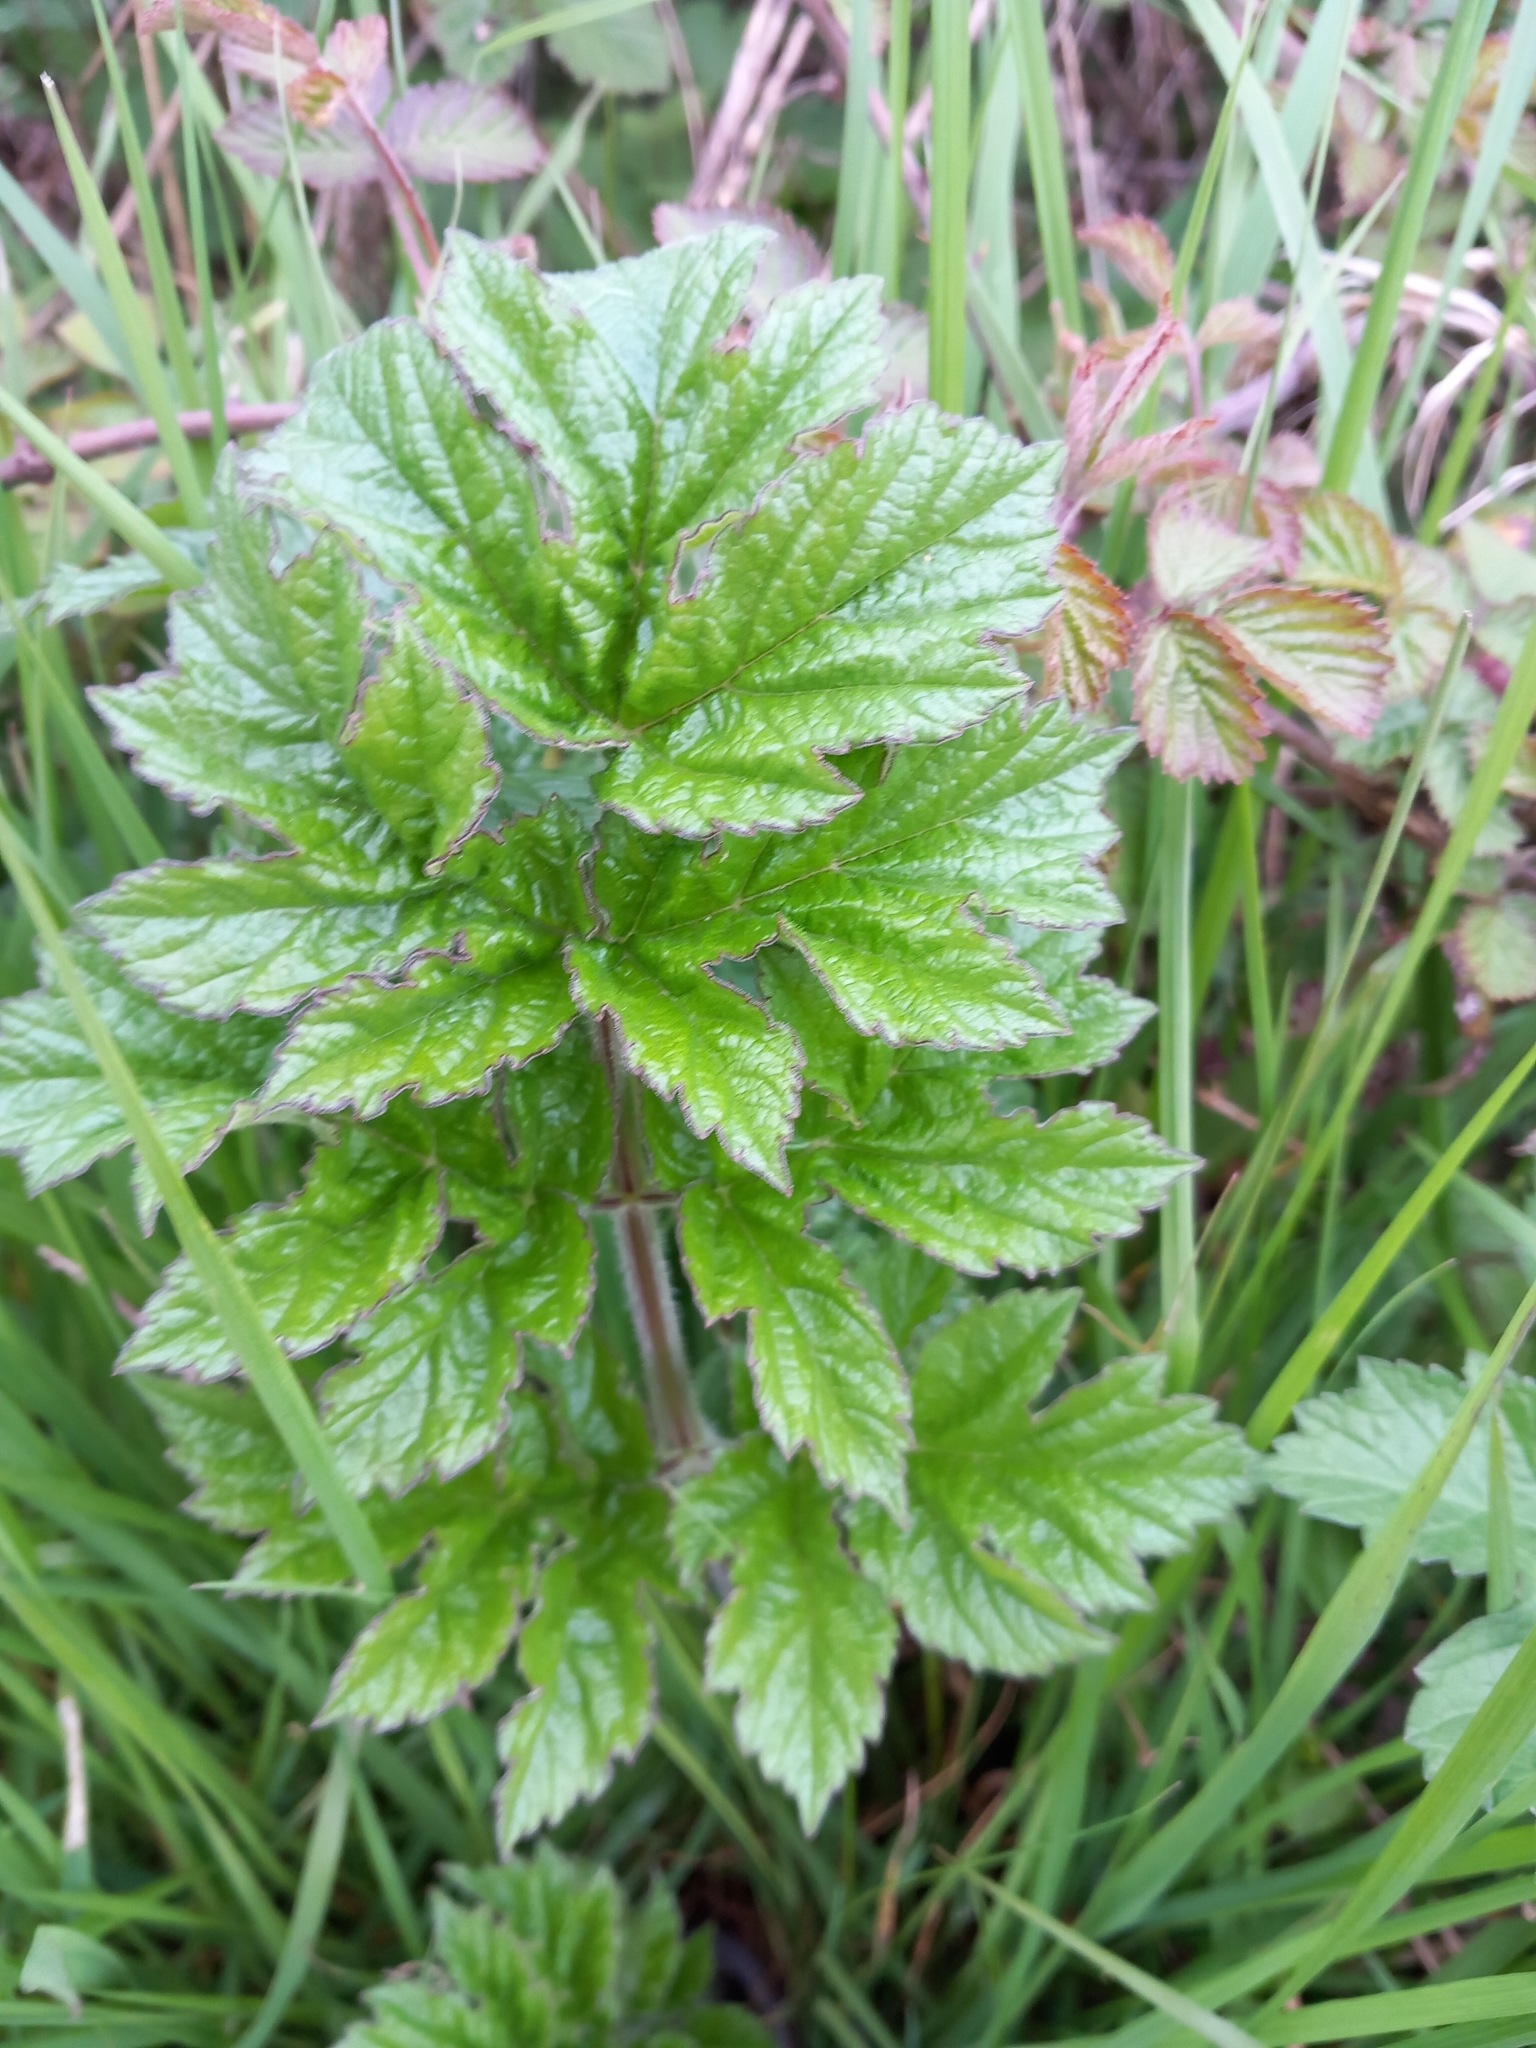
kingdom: Plantae
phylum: Tracheophyta
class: Magnoliopsida
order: Apiales
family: Apiaceae
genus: Heracleum
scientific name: Heracleum sphondylium
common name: Hogweed
